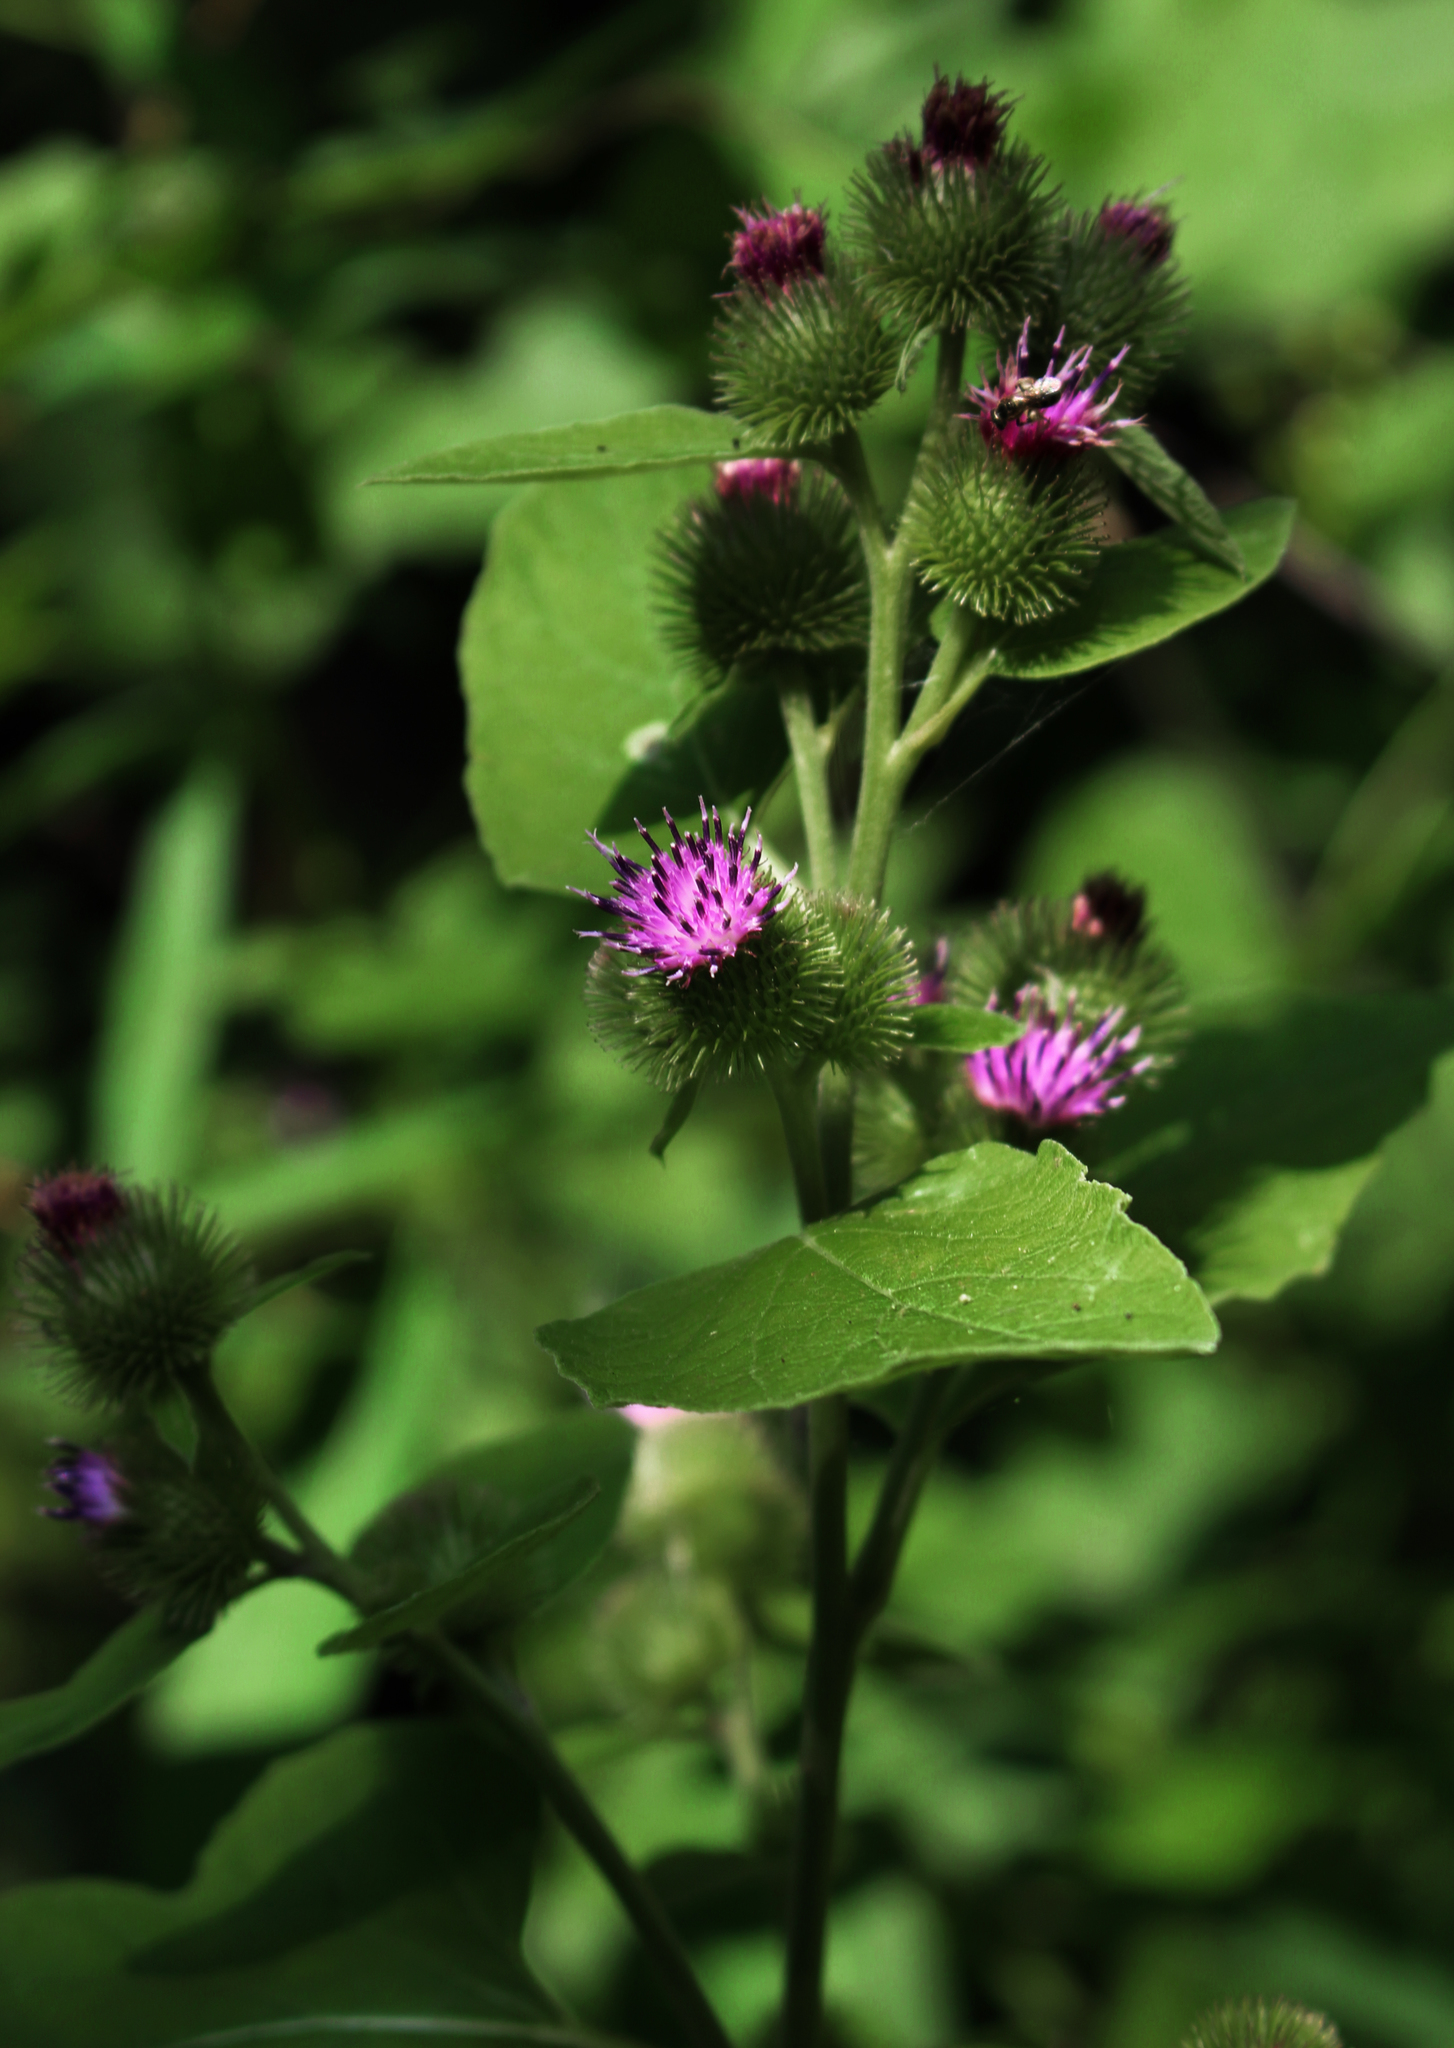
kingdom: Plantae
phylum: Tracheophyta
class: Magnoliopsida
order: Asterales
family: Asteraceae
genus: Arctium
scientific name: Arctium minus
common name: Lesser burdock
